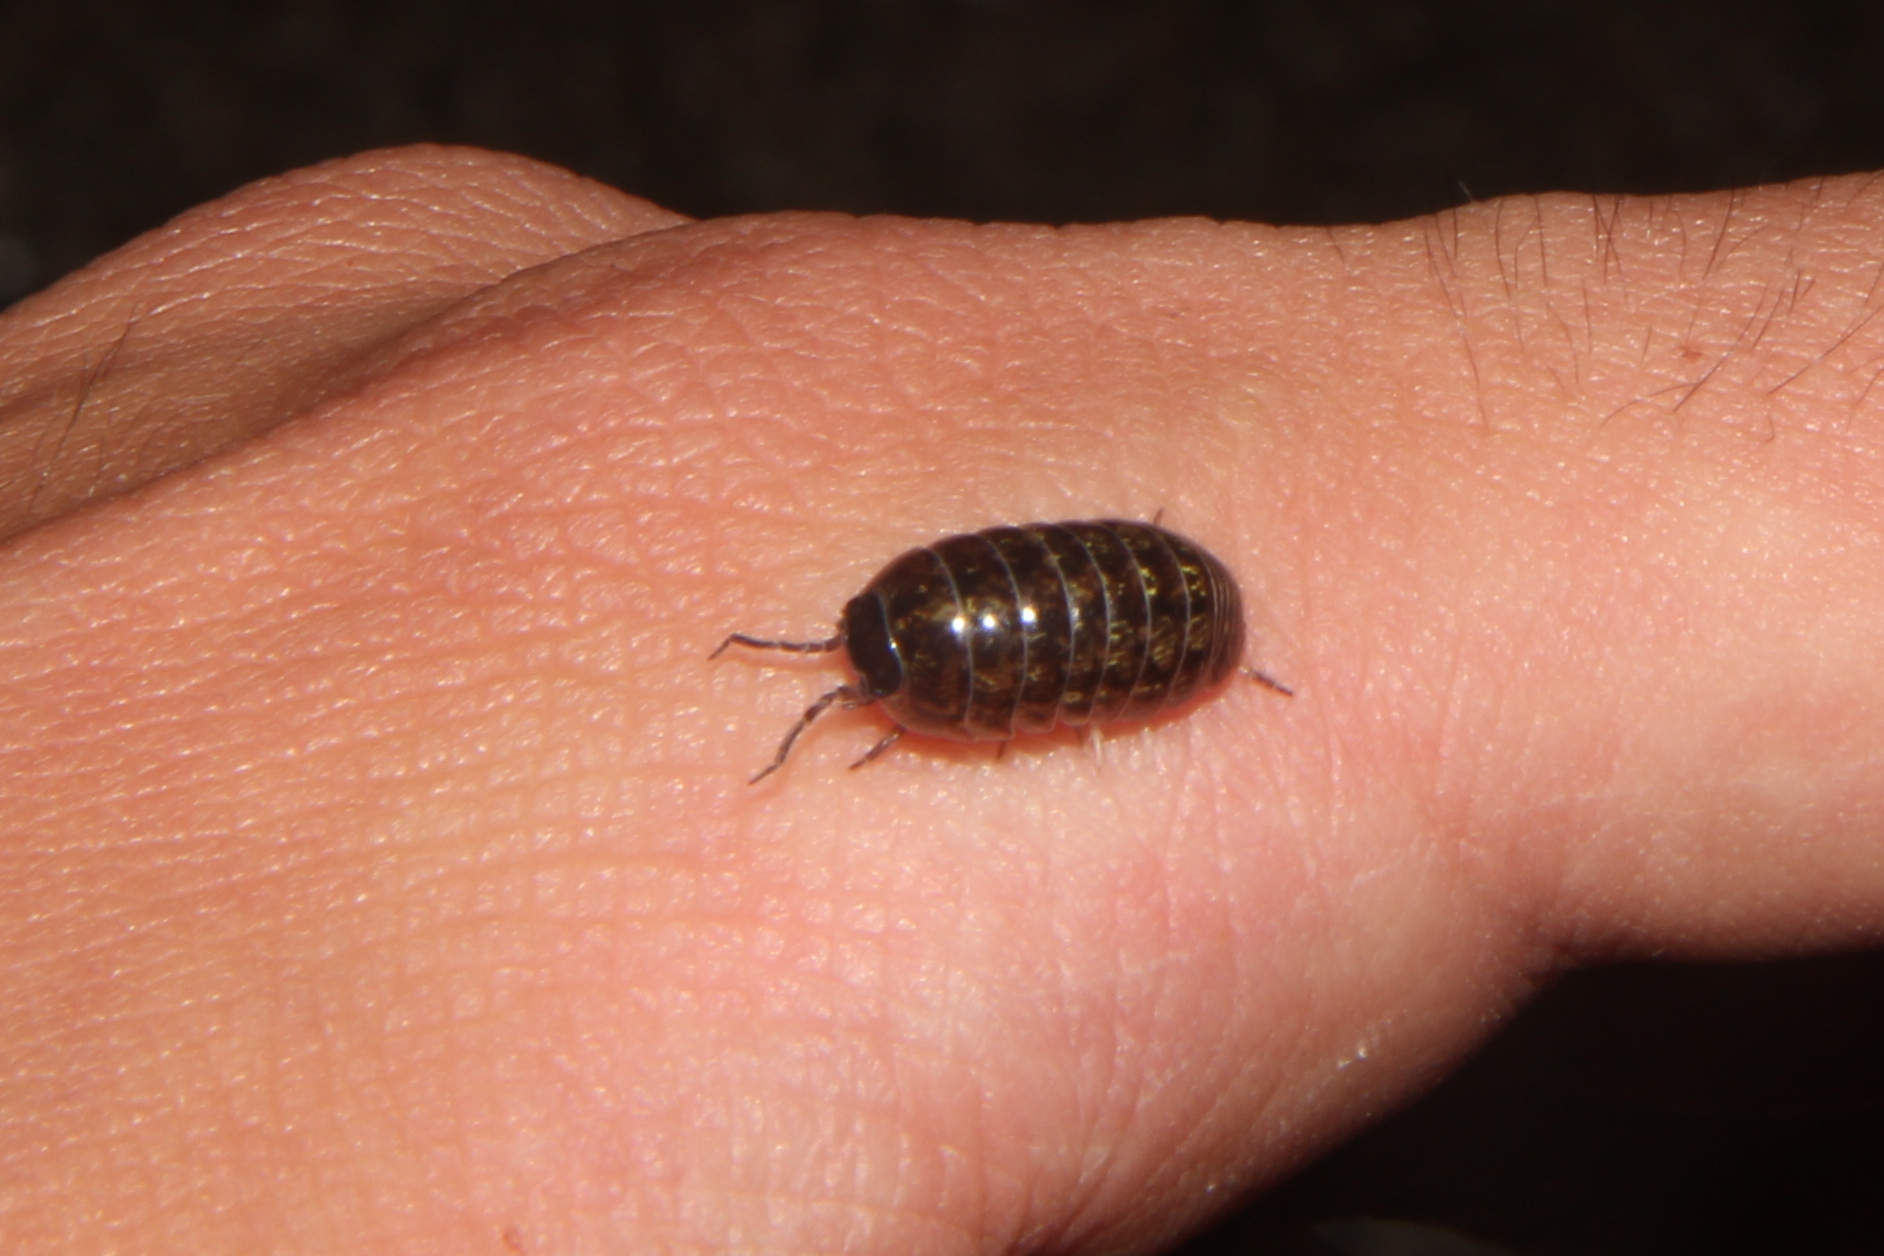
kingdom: Animalia
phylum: Arthropoda
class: Malacostraca
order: Isopoda
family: Armadillidiidae
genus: Armadillidium
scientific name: Armadillidium vulgare
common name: Common pill woodlouse
